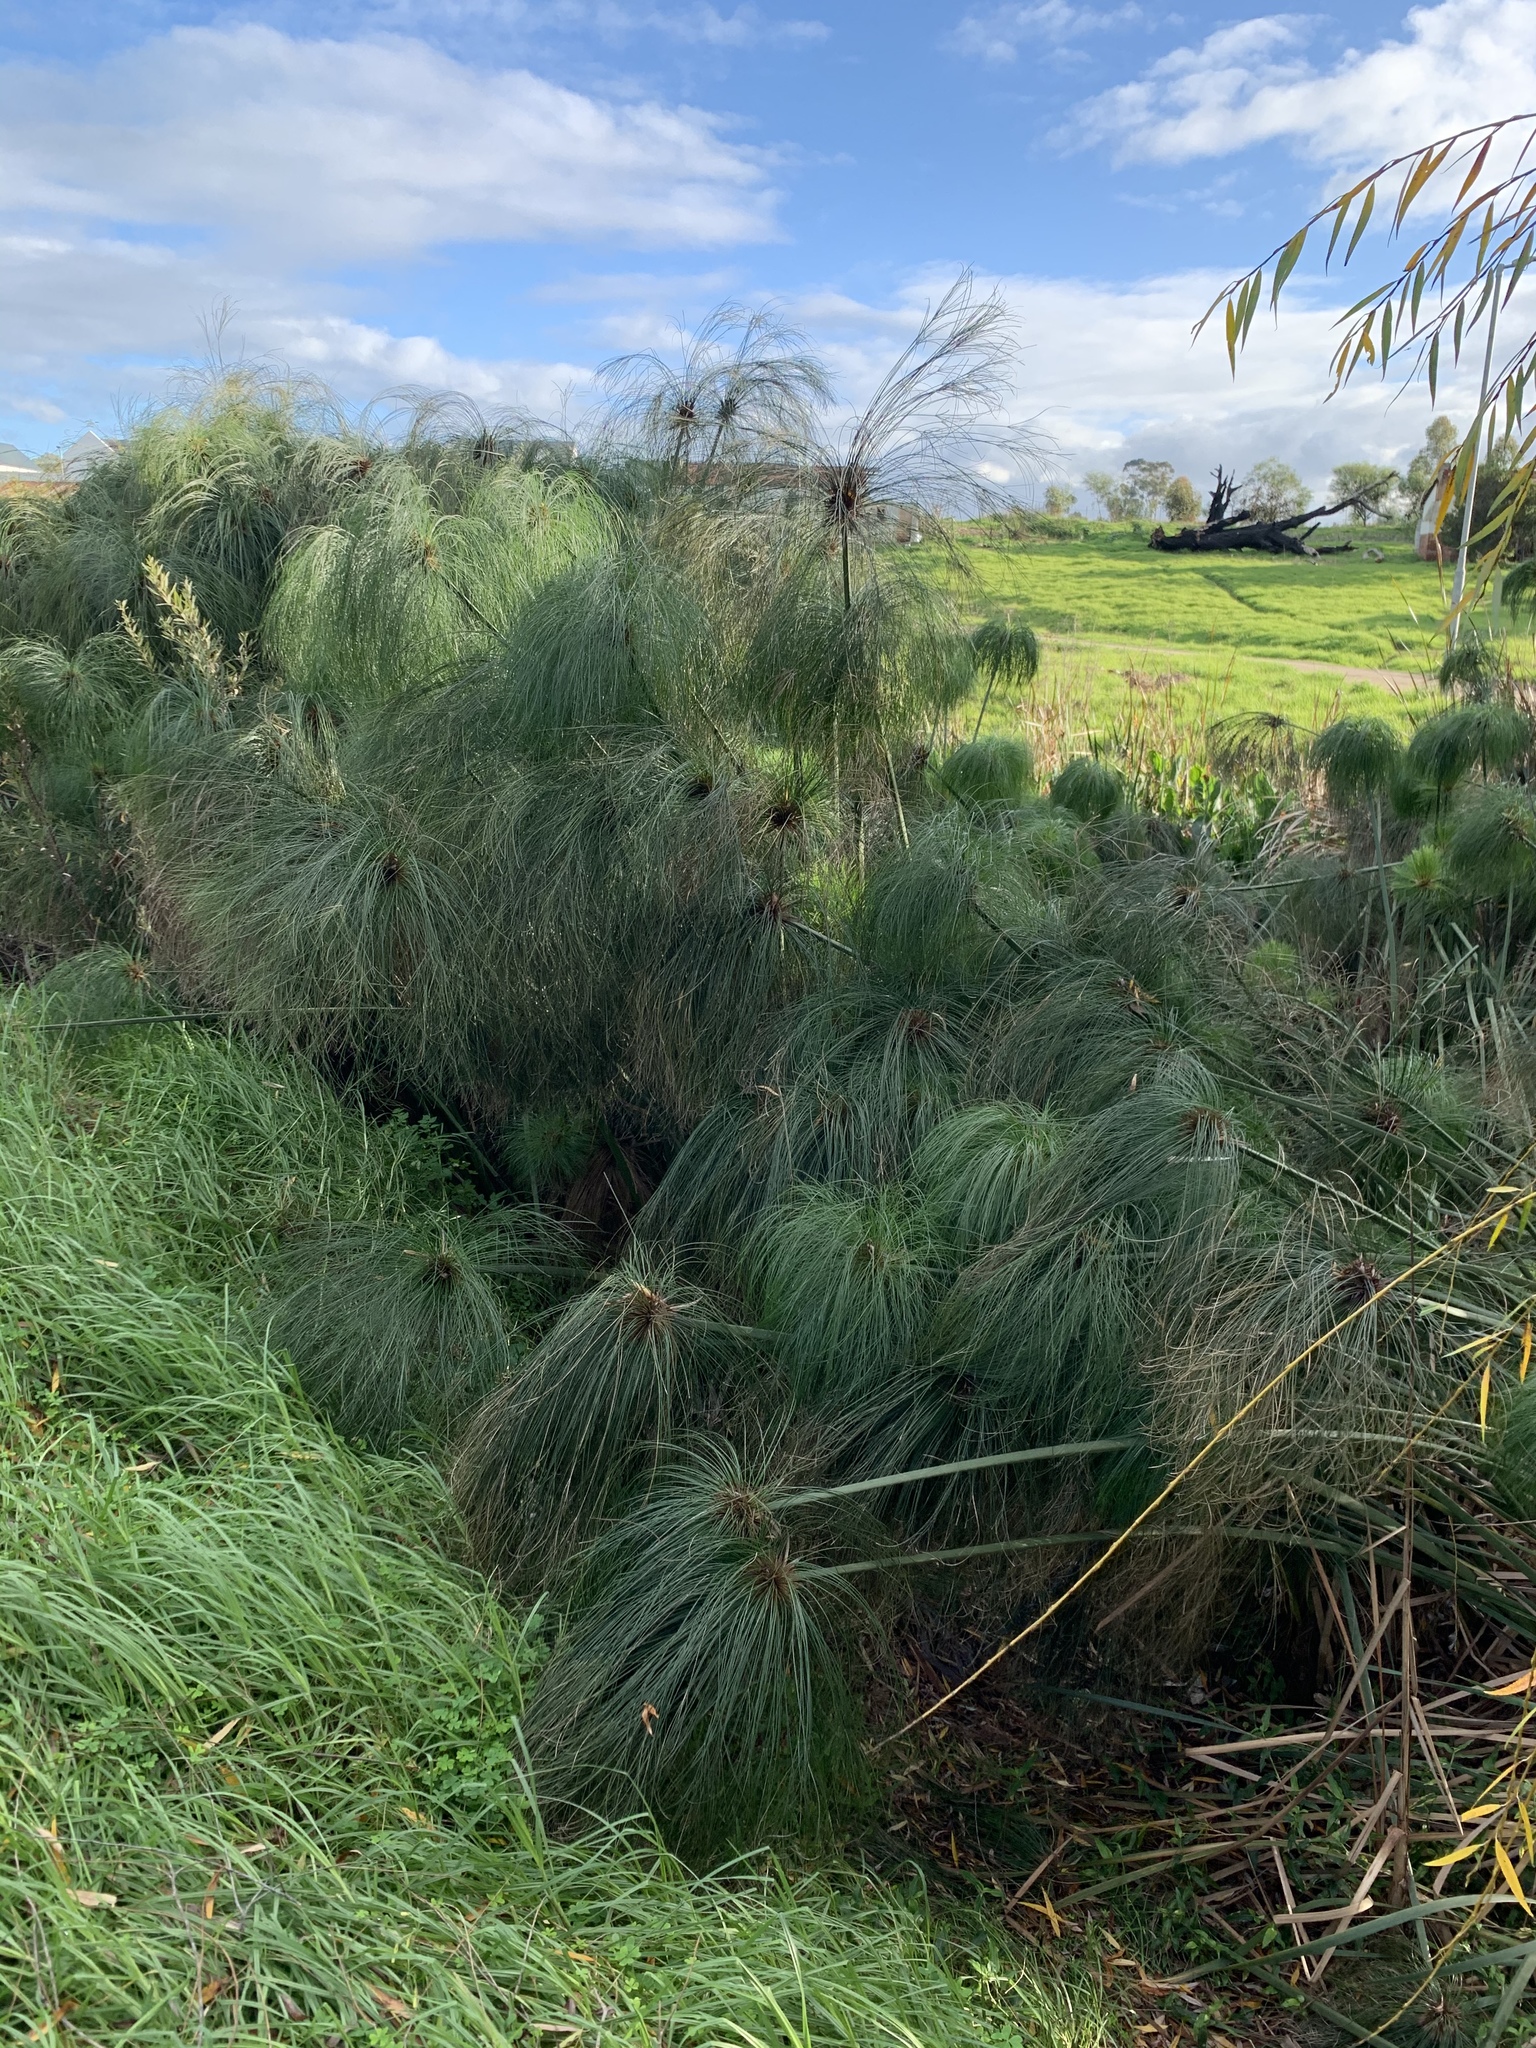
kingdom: Plantae
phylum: Tracheophyta
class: Liliopsida
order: Poales
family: Cyperaceae
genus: Cyperus
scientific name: Cyperus papyrus
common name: Papyrus
